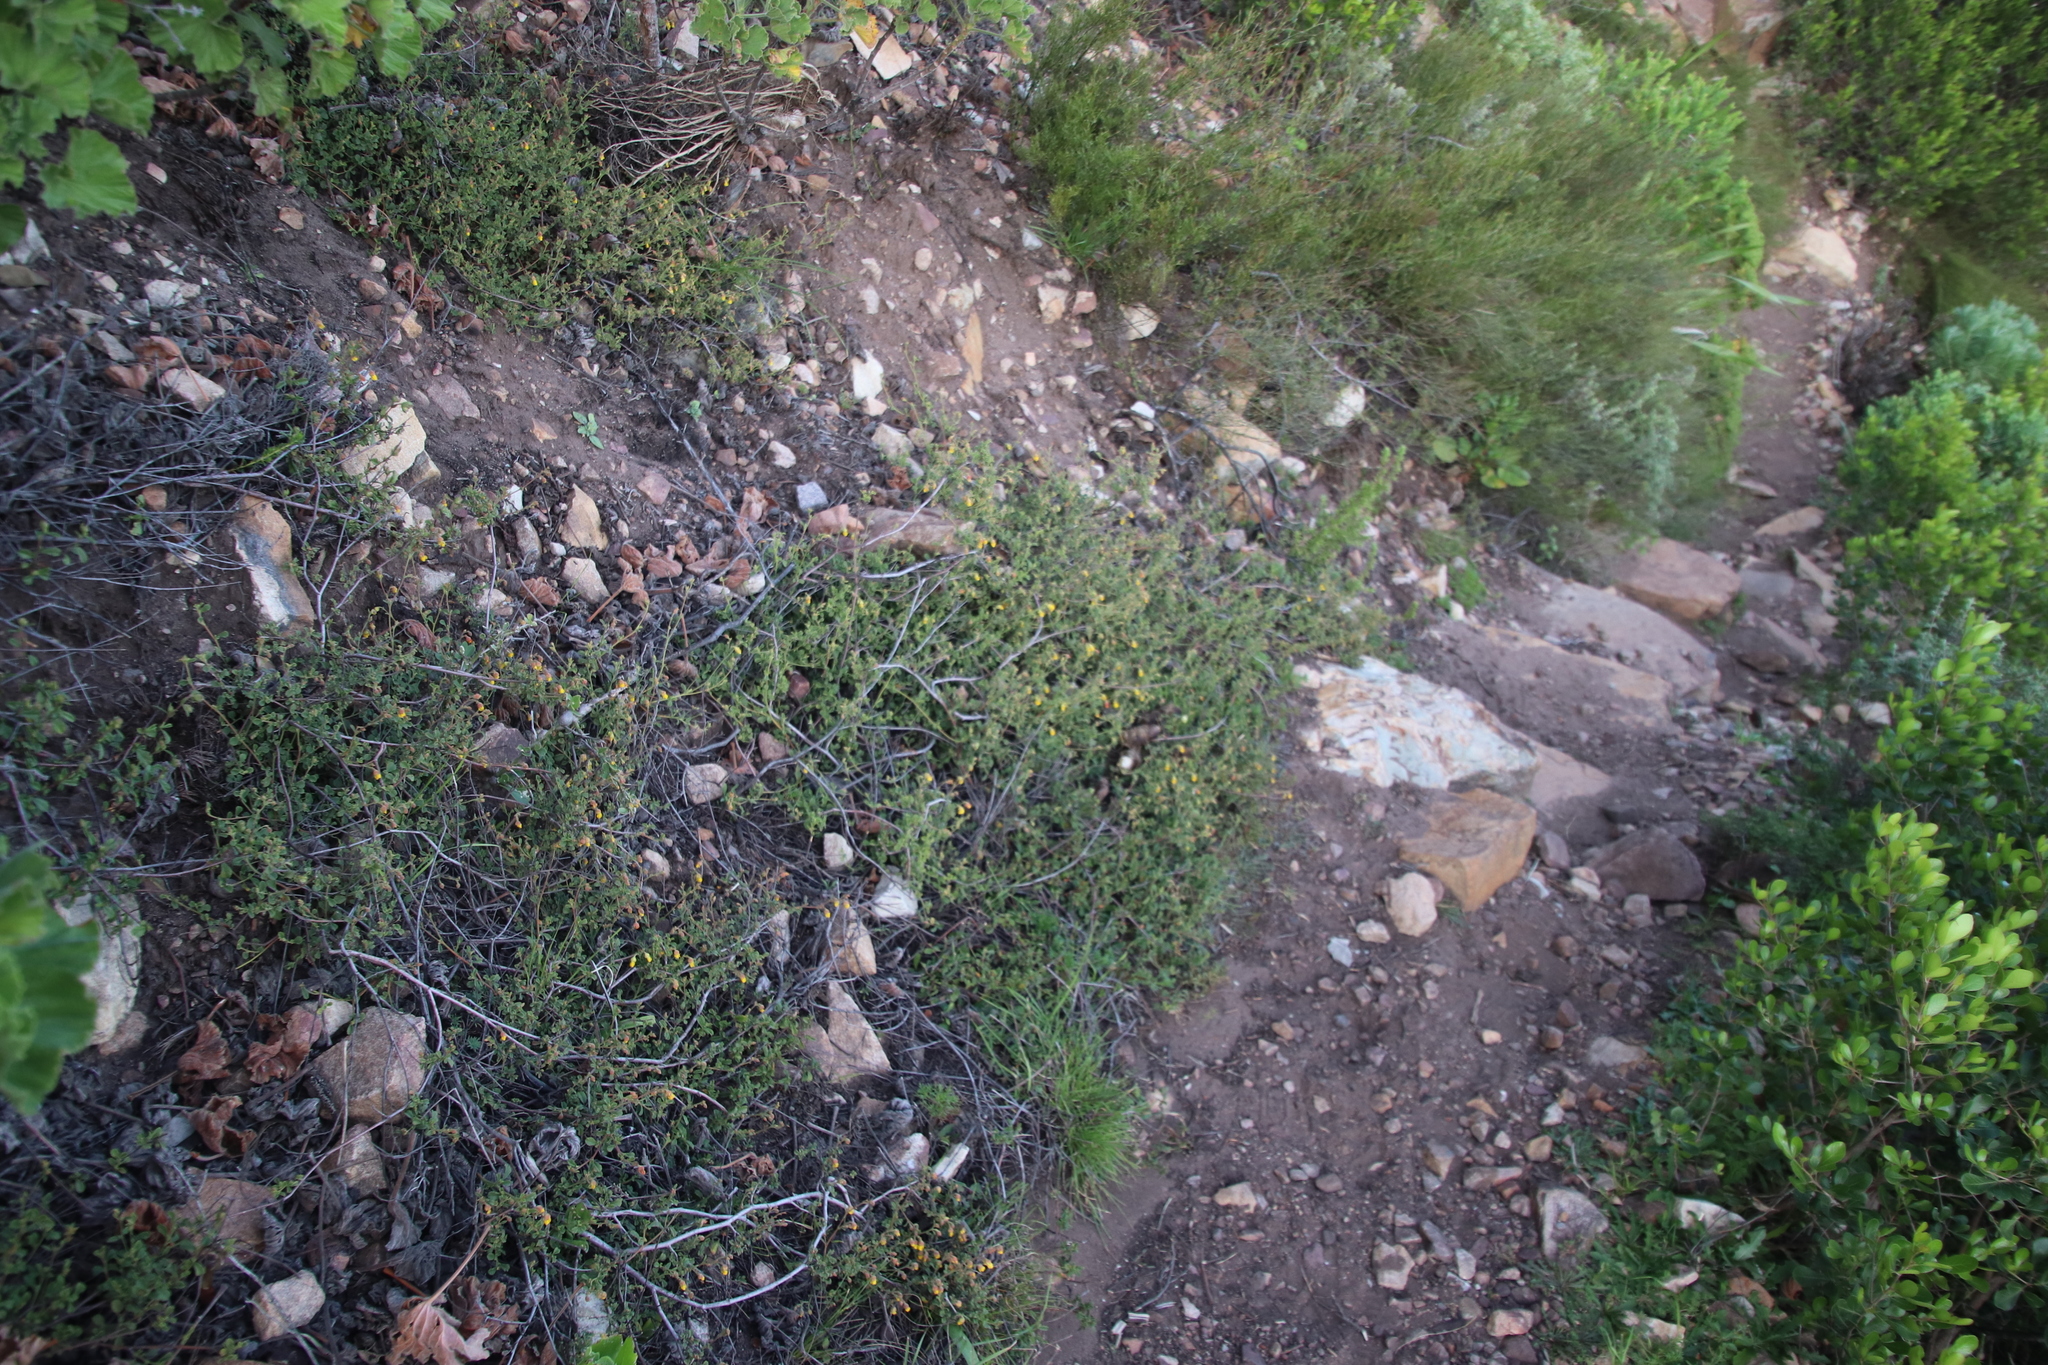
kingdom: Plantae
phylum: Tracheophyta
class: Magnoliopsida
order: Malvales
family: Malvaceae
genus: Hermannia
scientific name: Hermannia multiflora
